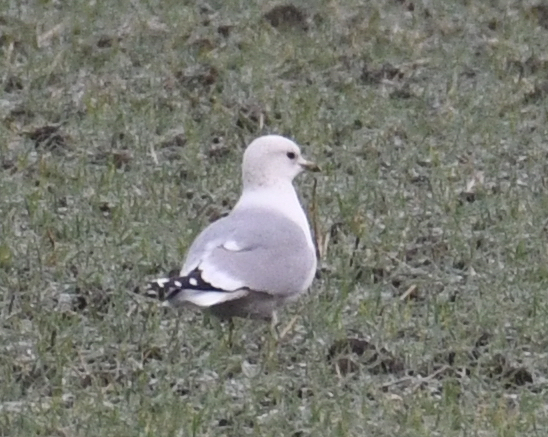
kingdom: Animalia
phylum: Chordata
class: Aves
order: Charadriiformes
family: Laridae
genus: Larus
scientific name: Larus canus
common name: Mew gull
